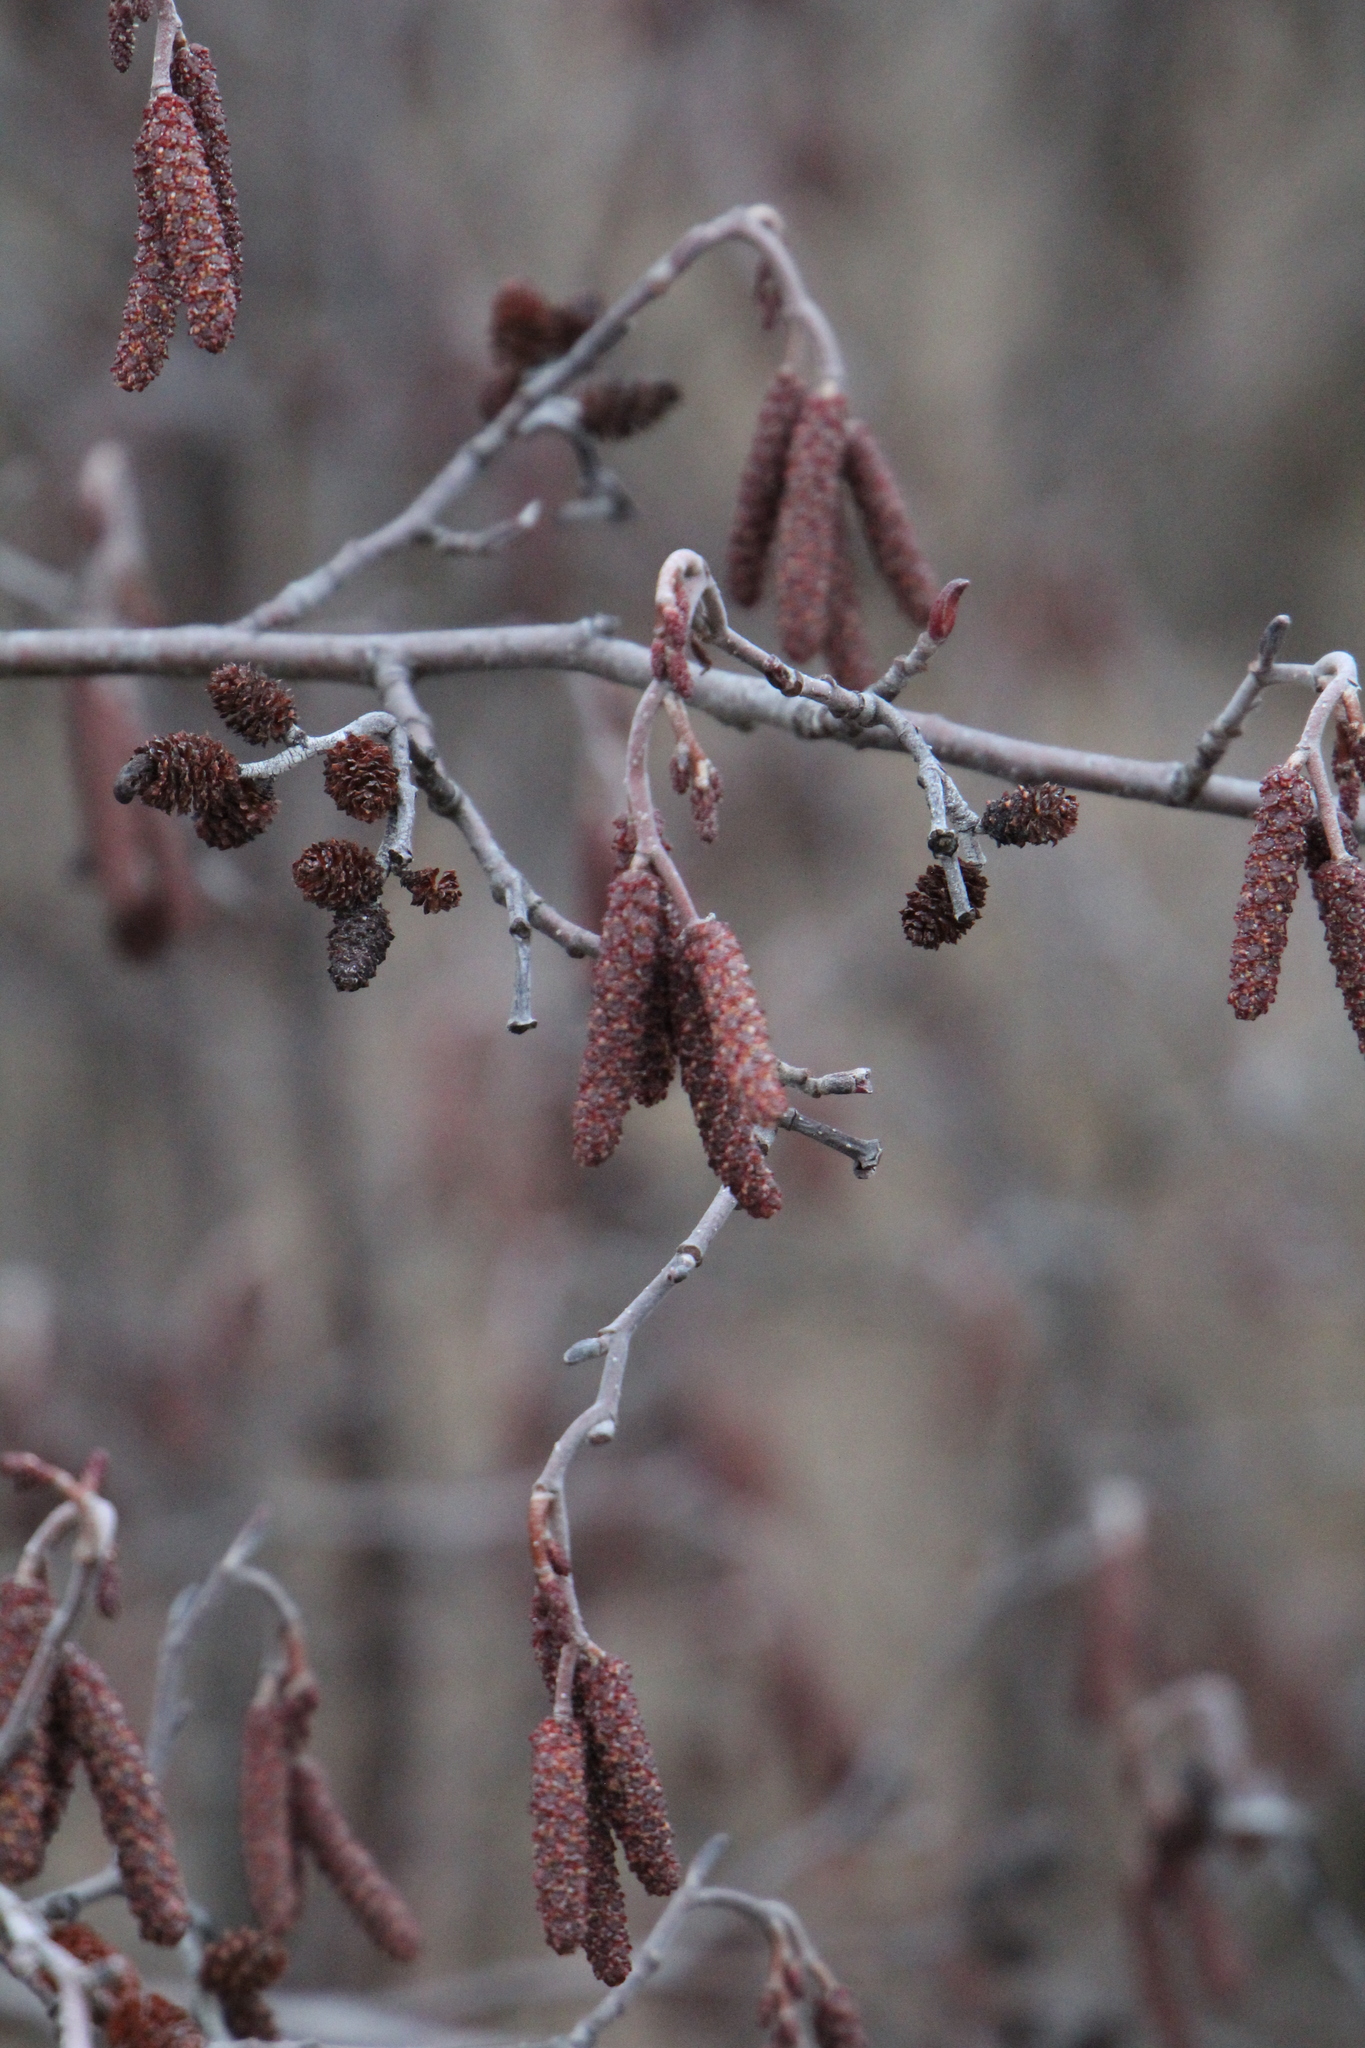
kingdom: Plantae
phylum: Tracheophyta
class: Magnoliopsida
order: Fagales
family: Betulaceae
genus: Alnus
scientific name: Alnus incana
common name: Grey alder
